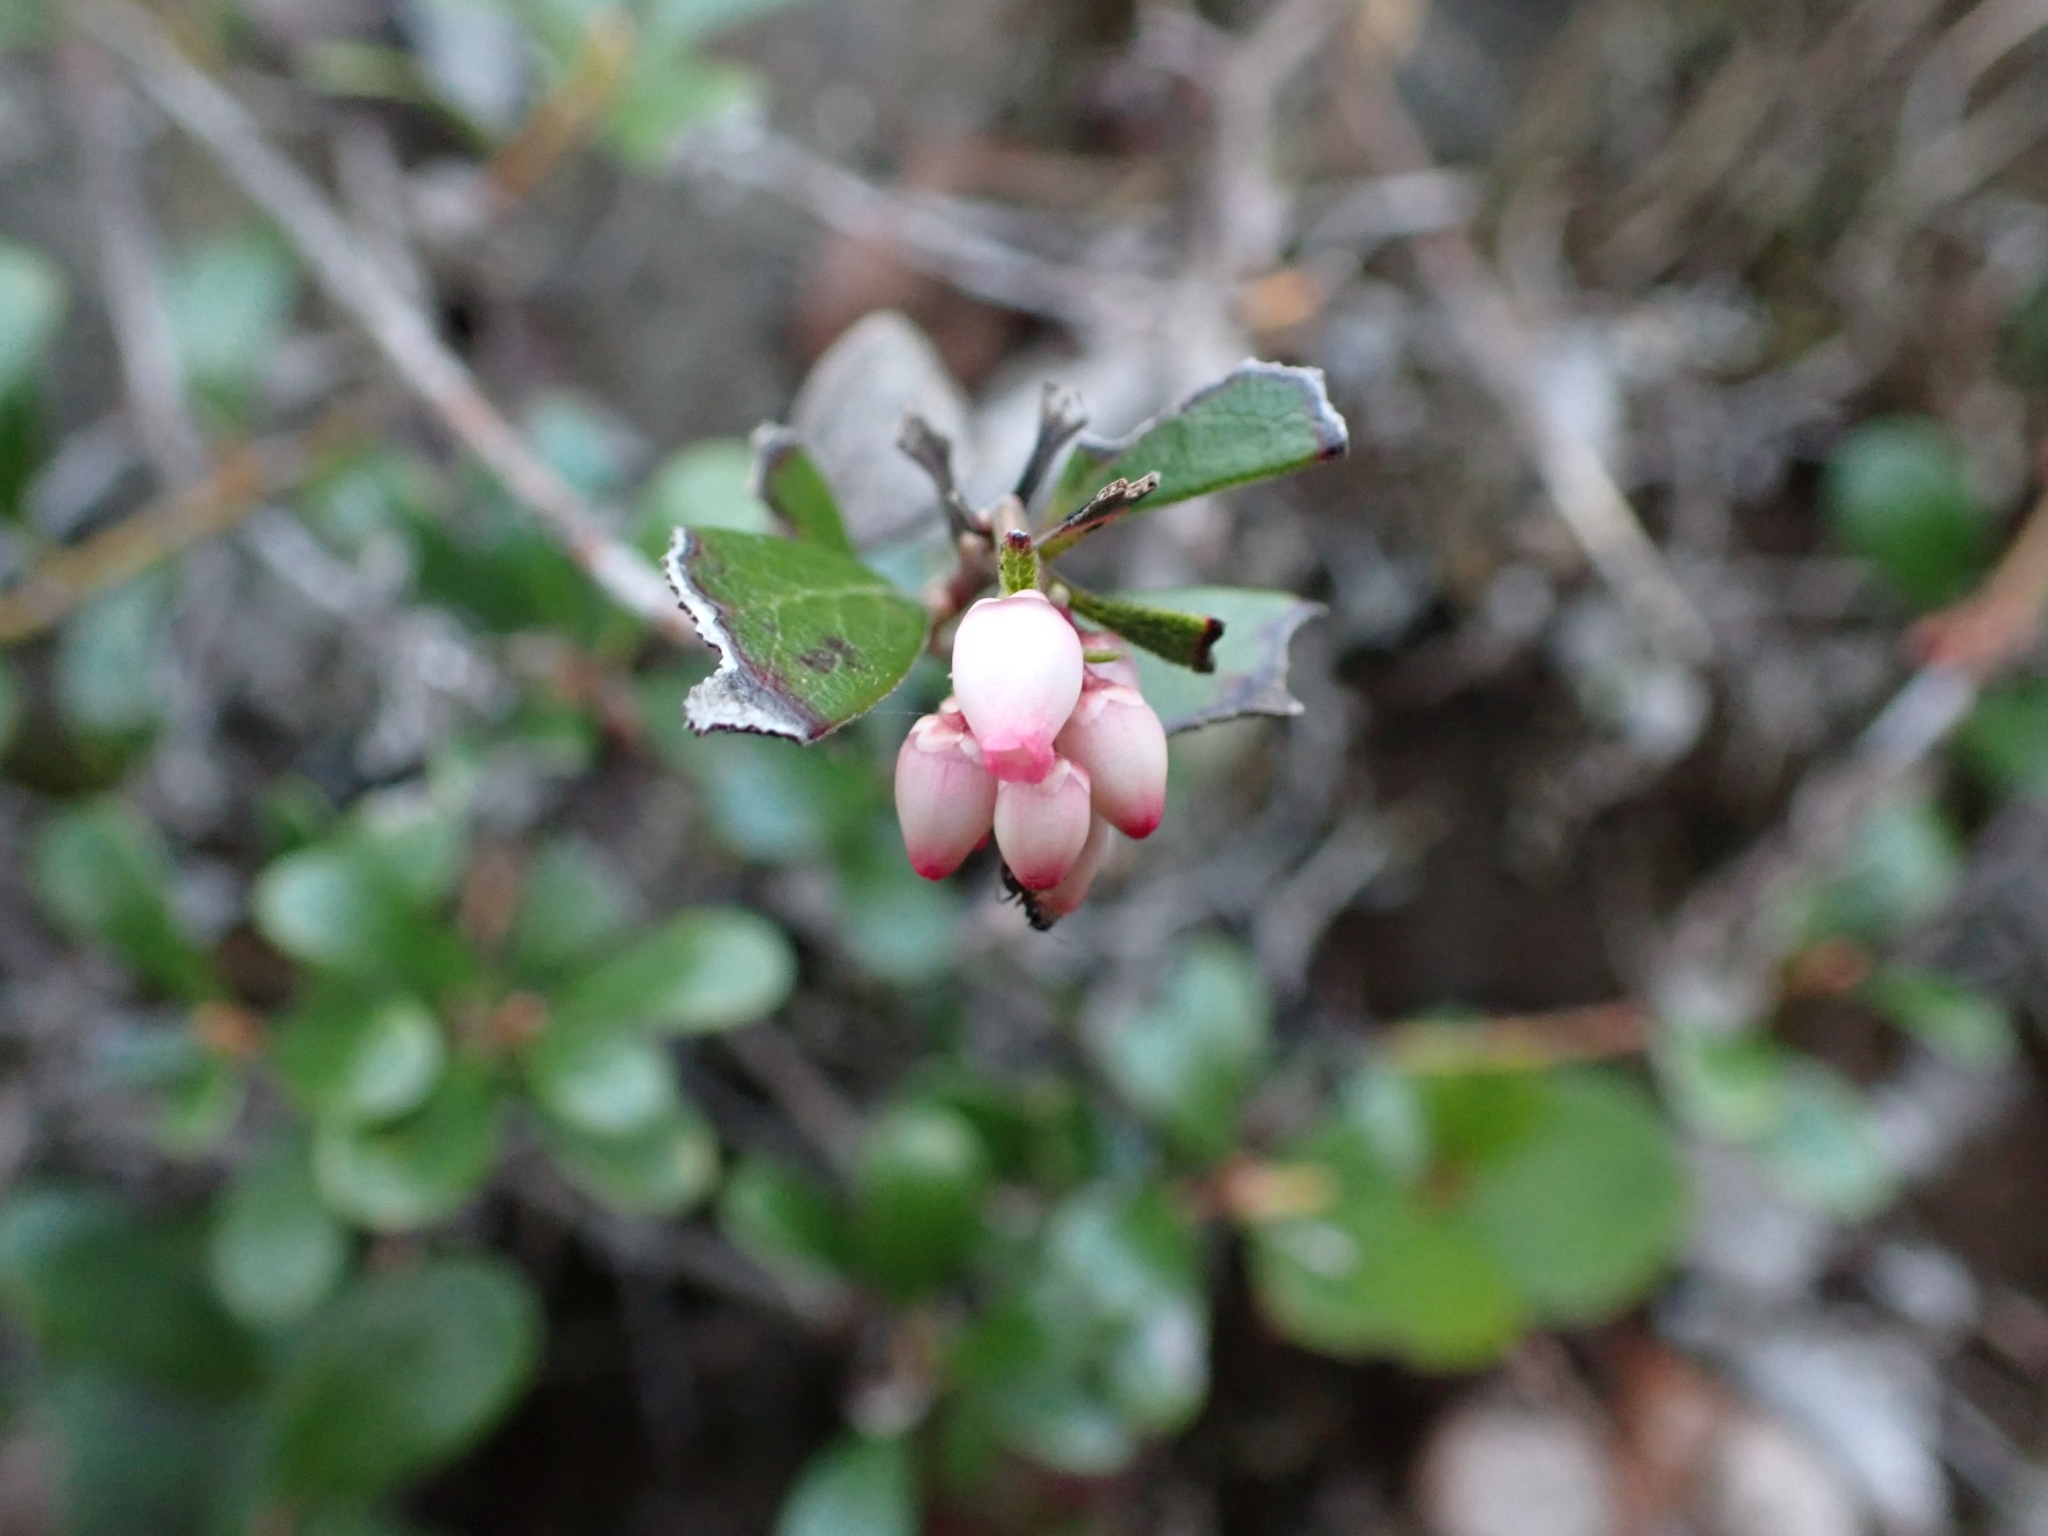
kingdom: Plantae
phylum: Tracheophyta
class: Magnoliopsida
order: Ericales
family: Ericaceae
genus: Arctostaphylos
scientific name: Arctostaphylos uva-ursi
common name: Bearberry
